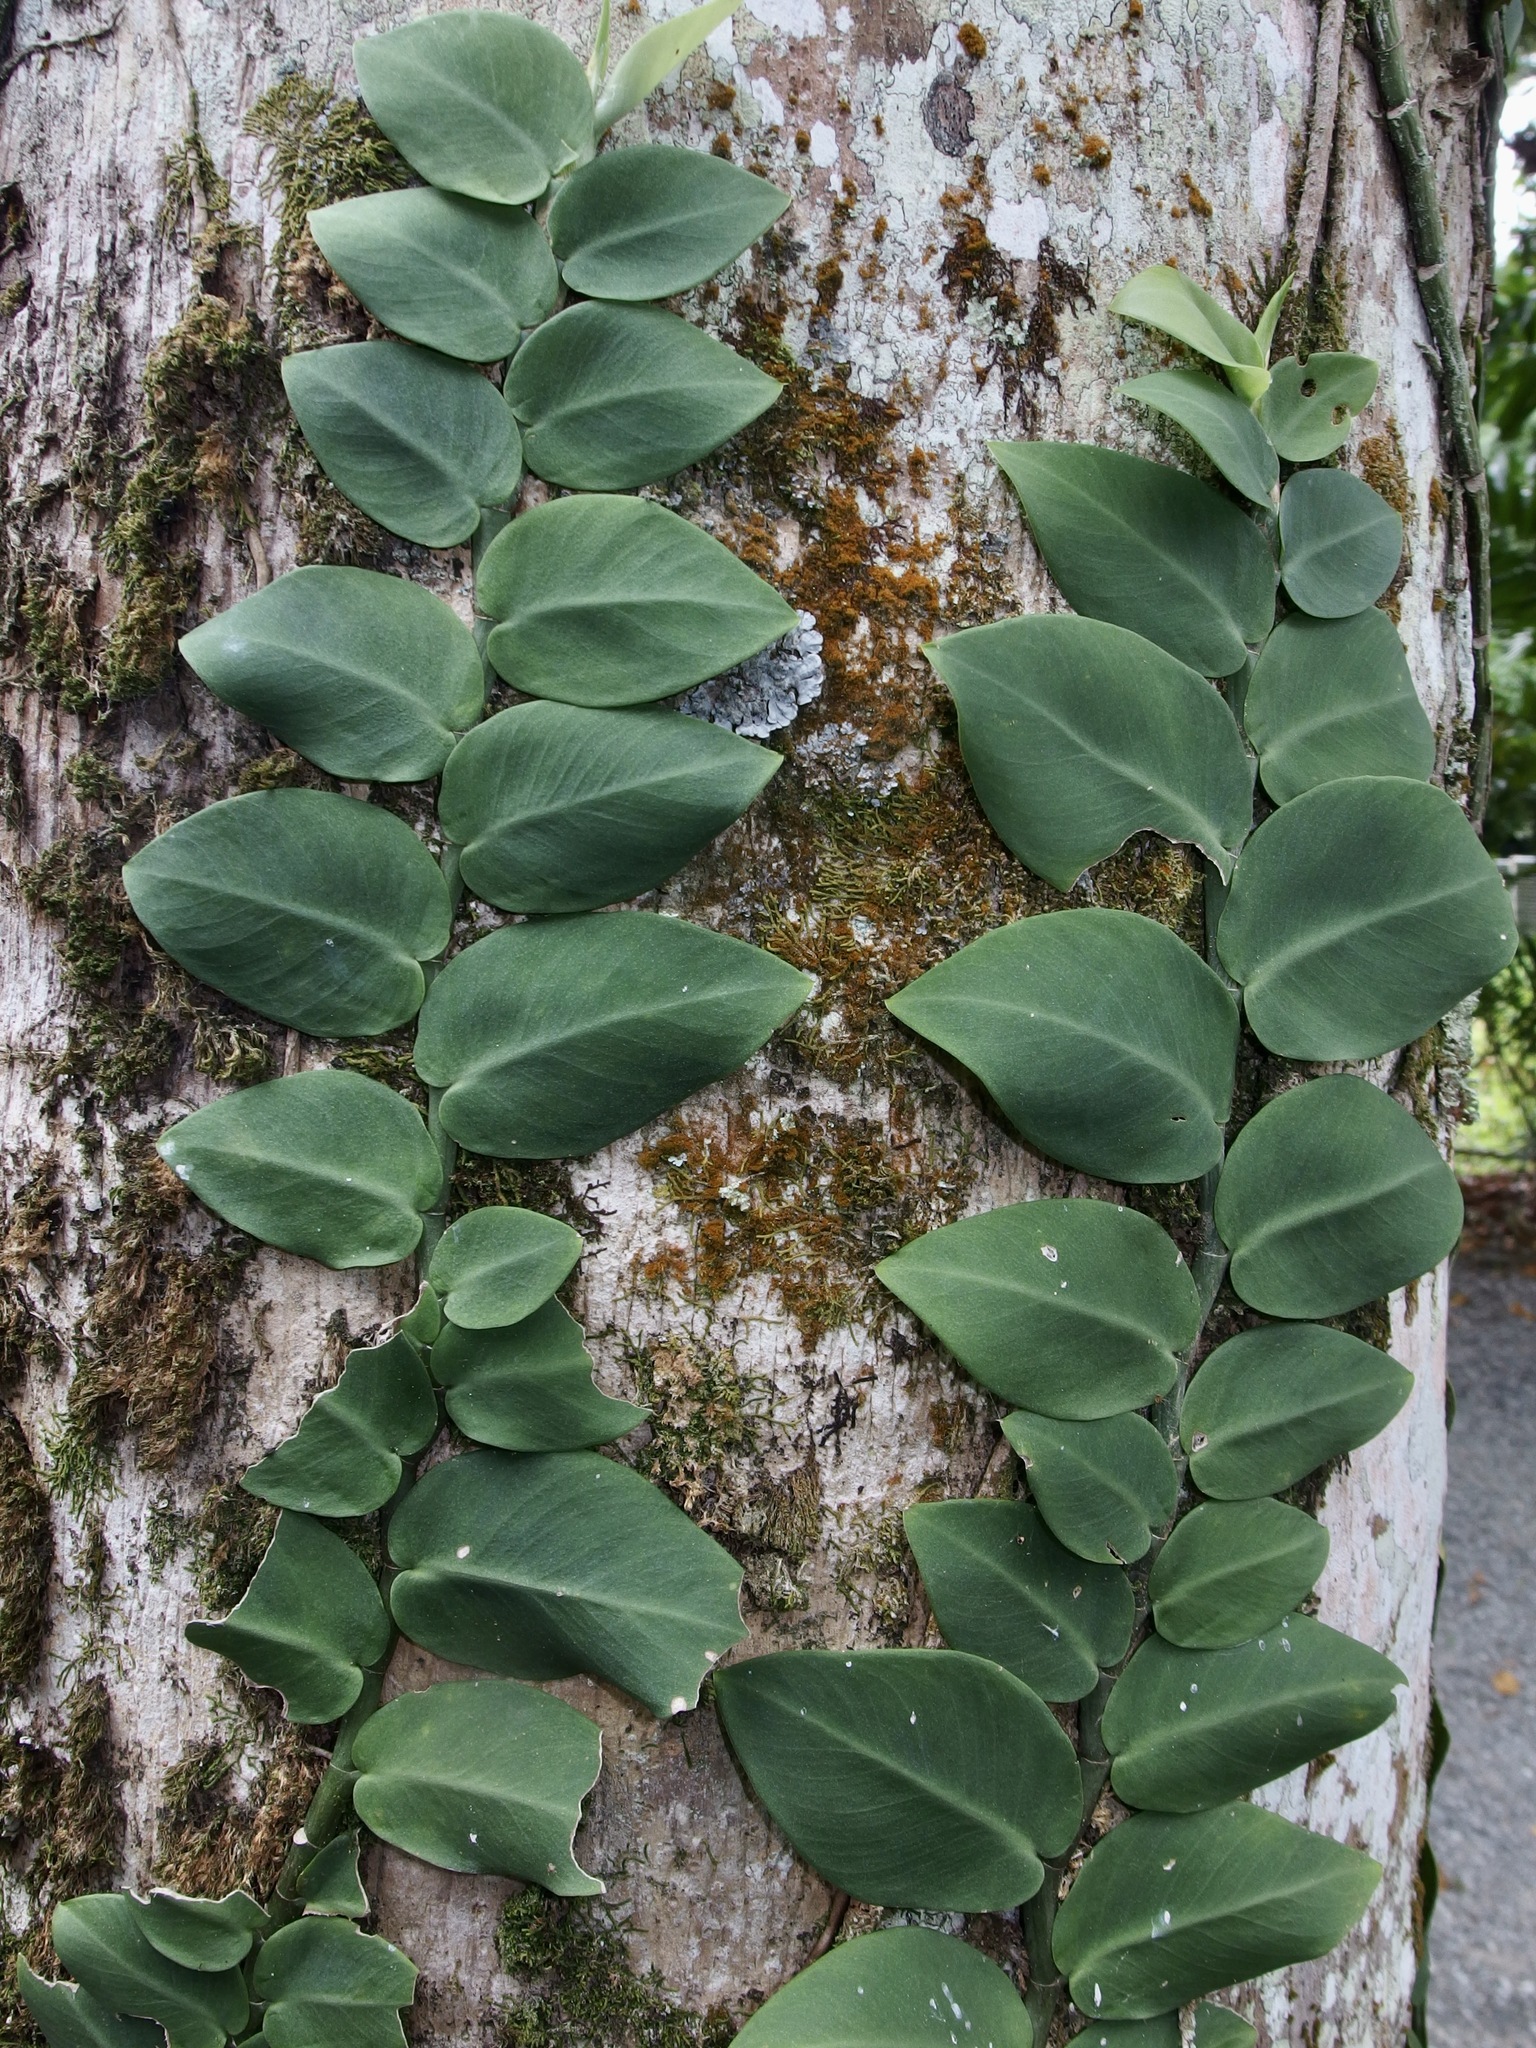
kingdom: Plantae
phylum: Tracheophyta
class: Liliopsida
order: Alismatales
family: Araceae
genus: Rhaphidophora
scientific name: Rhaphidophora hayi
